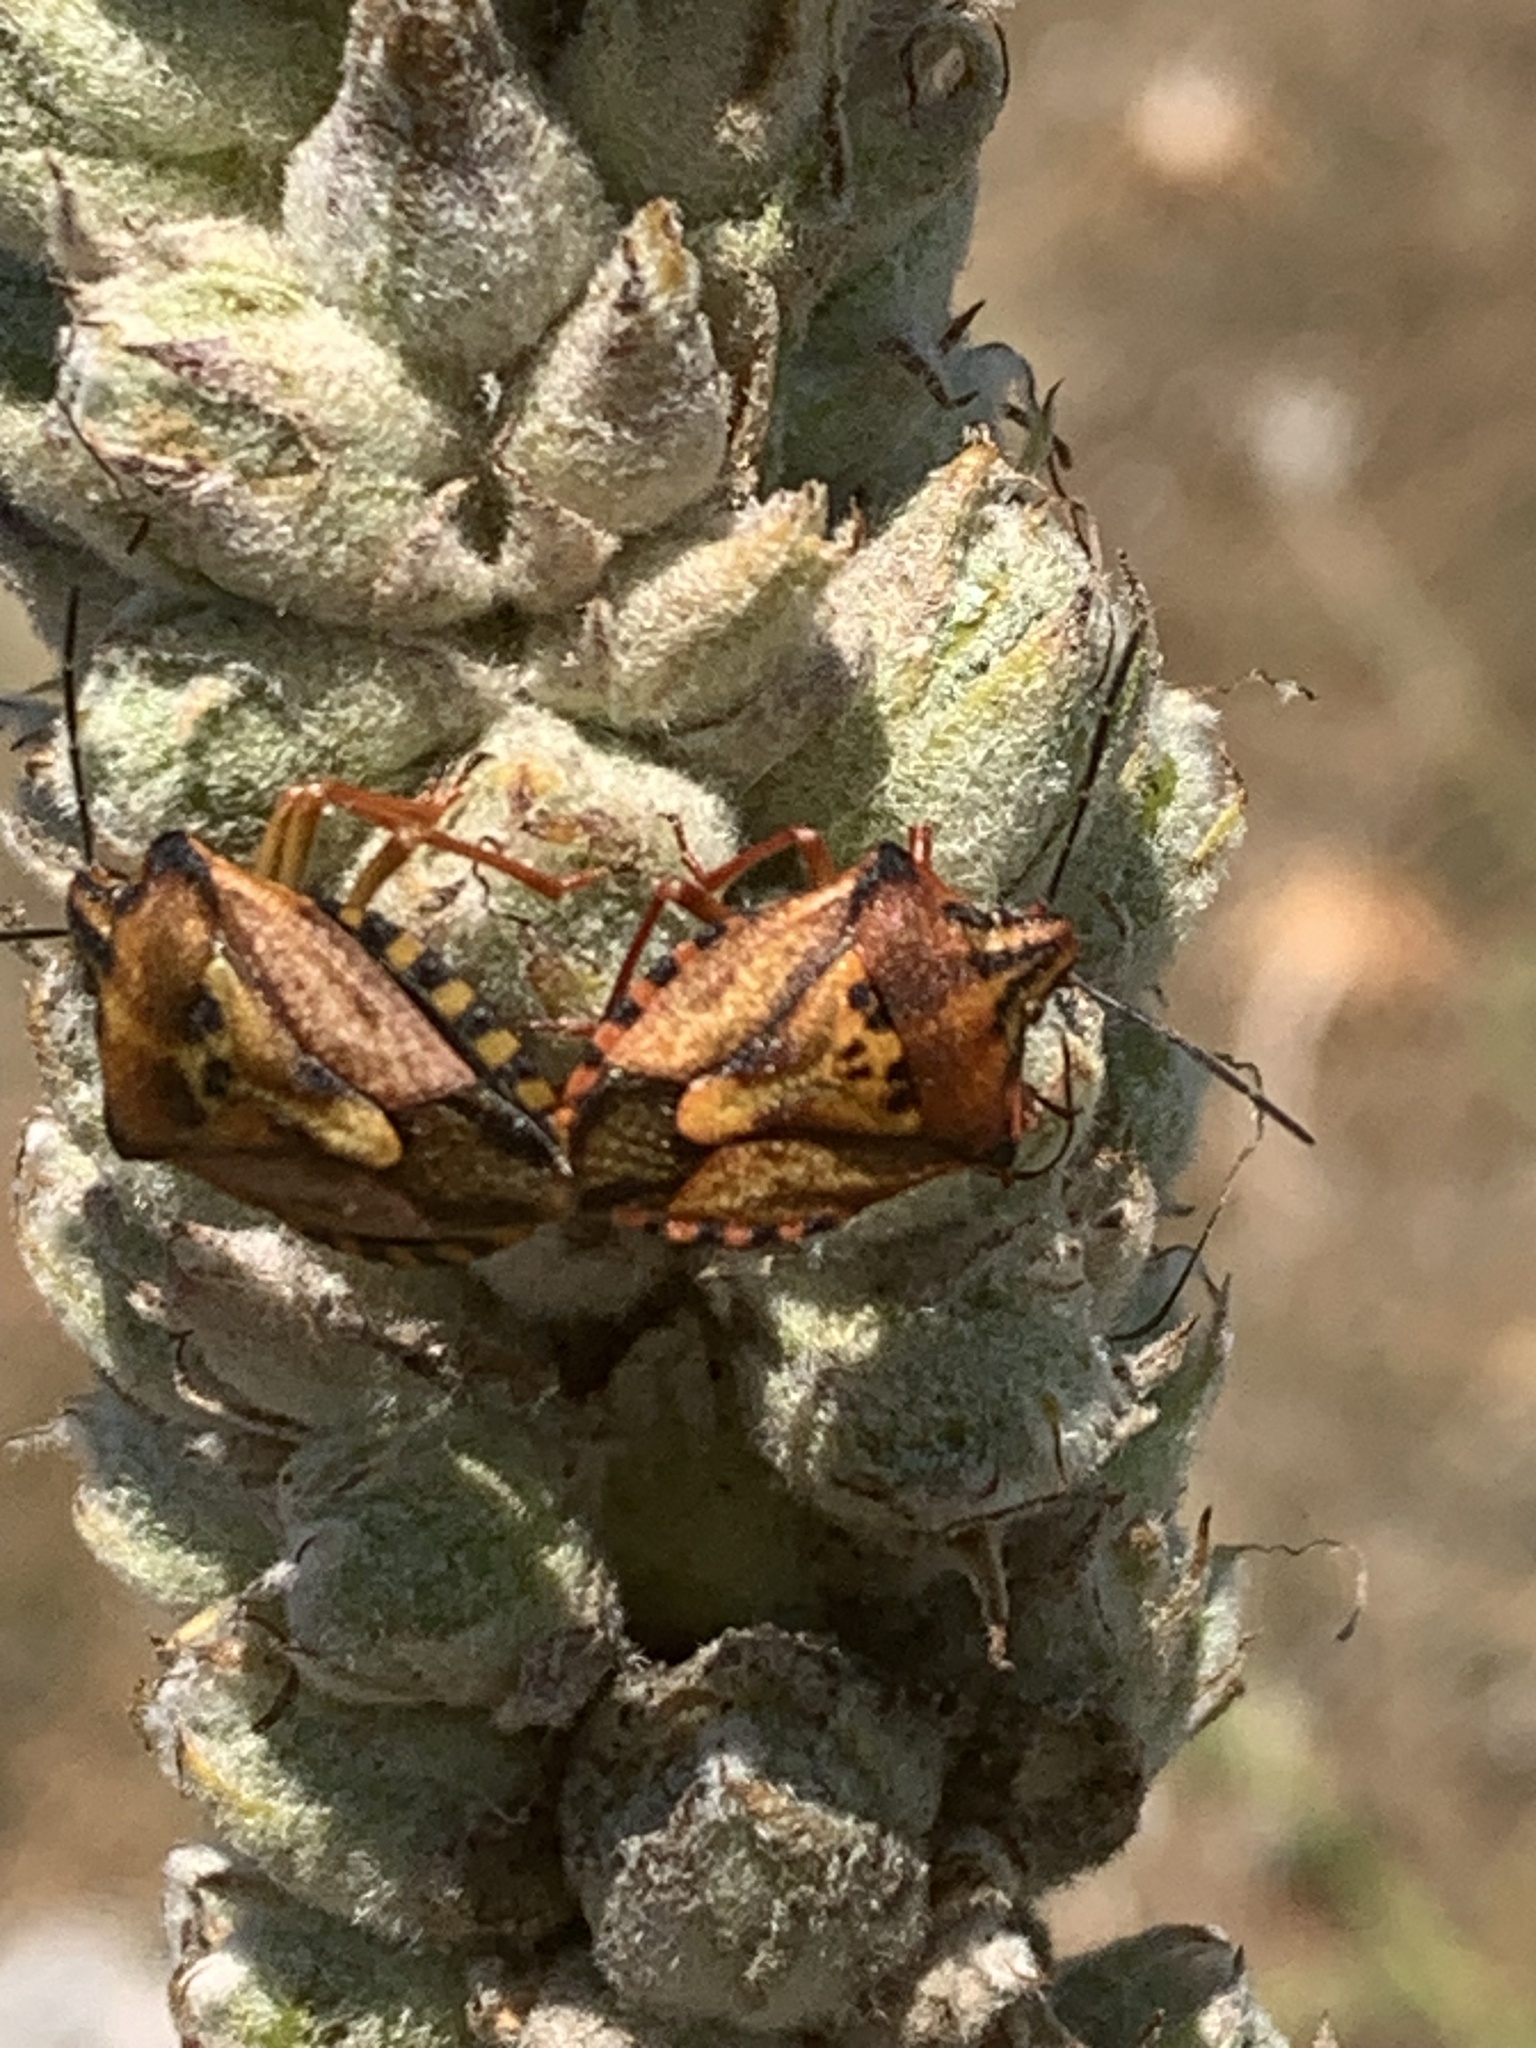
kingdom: Animalia
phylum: Arthropoda
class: Insecta
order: Hemiptera
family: Pentatomidae
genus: Carpocoris
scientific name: Carpocoris mediterraneus
